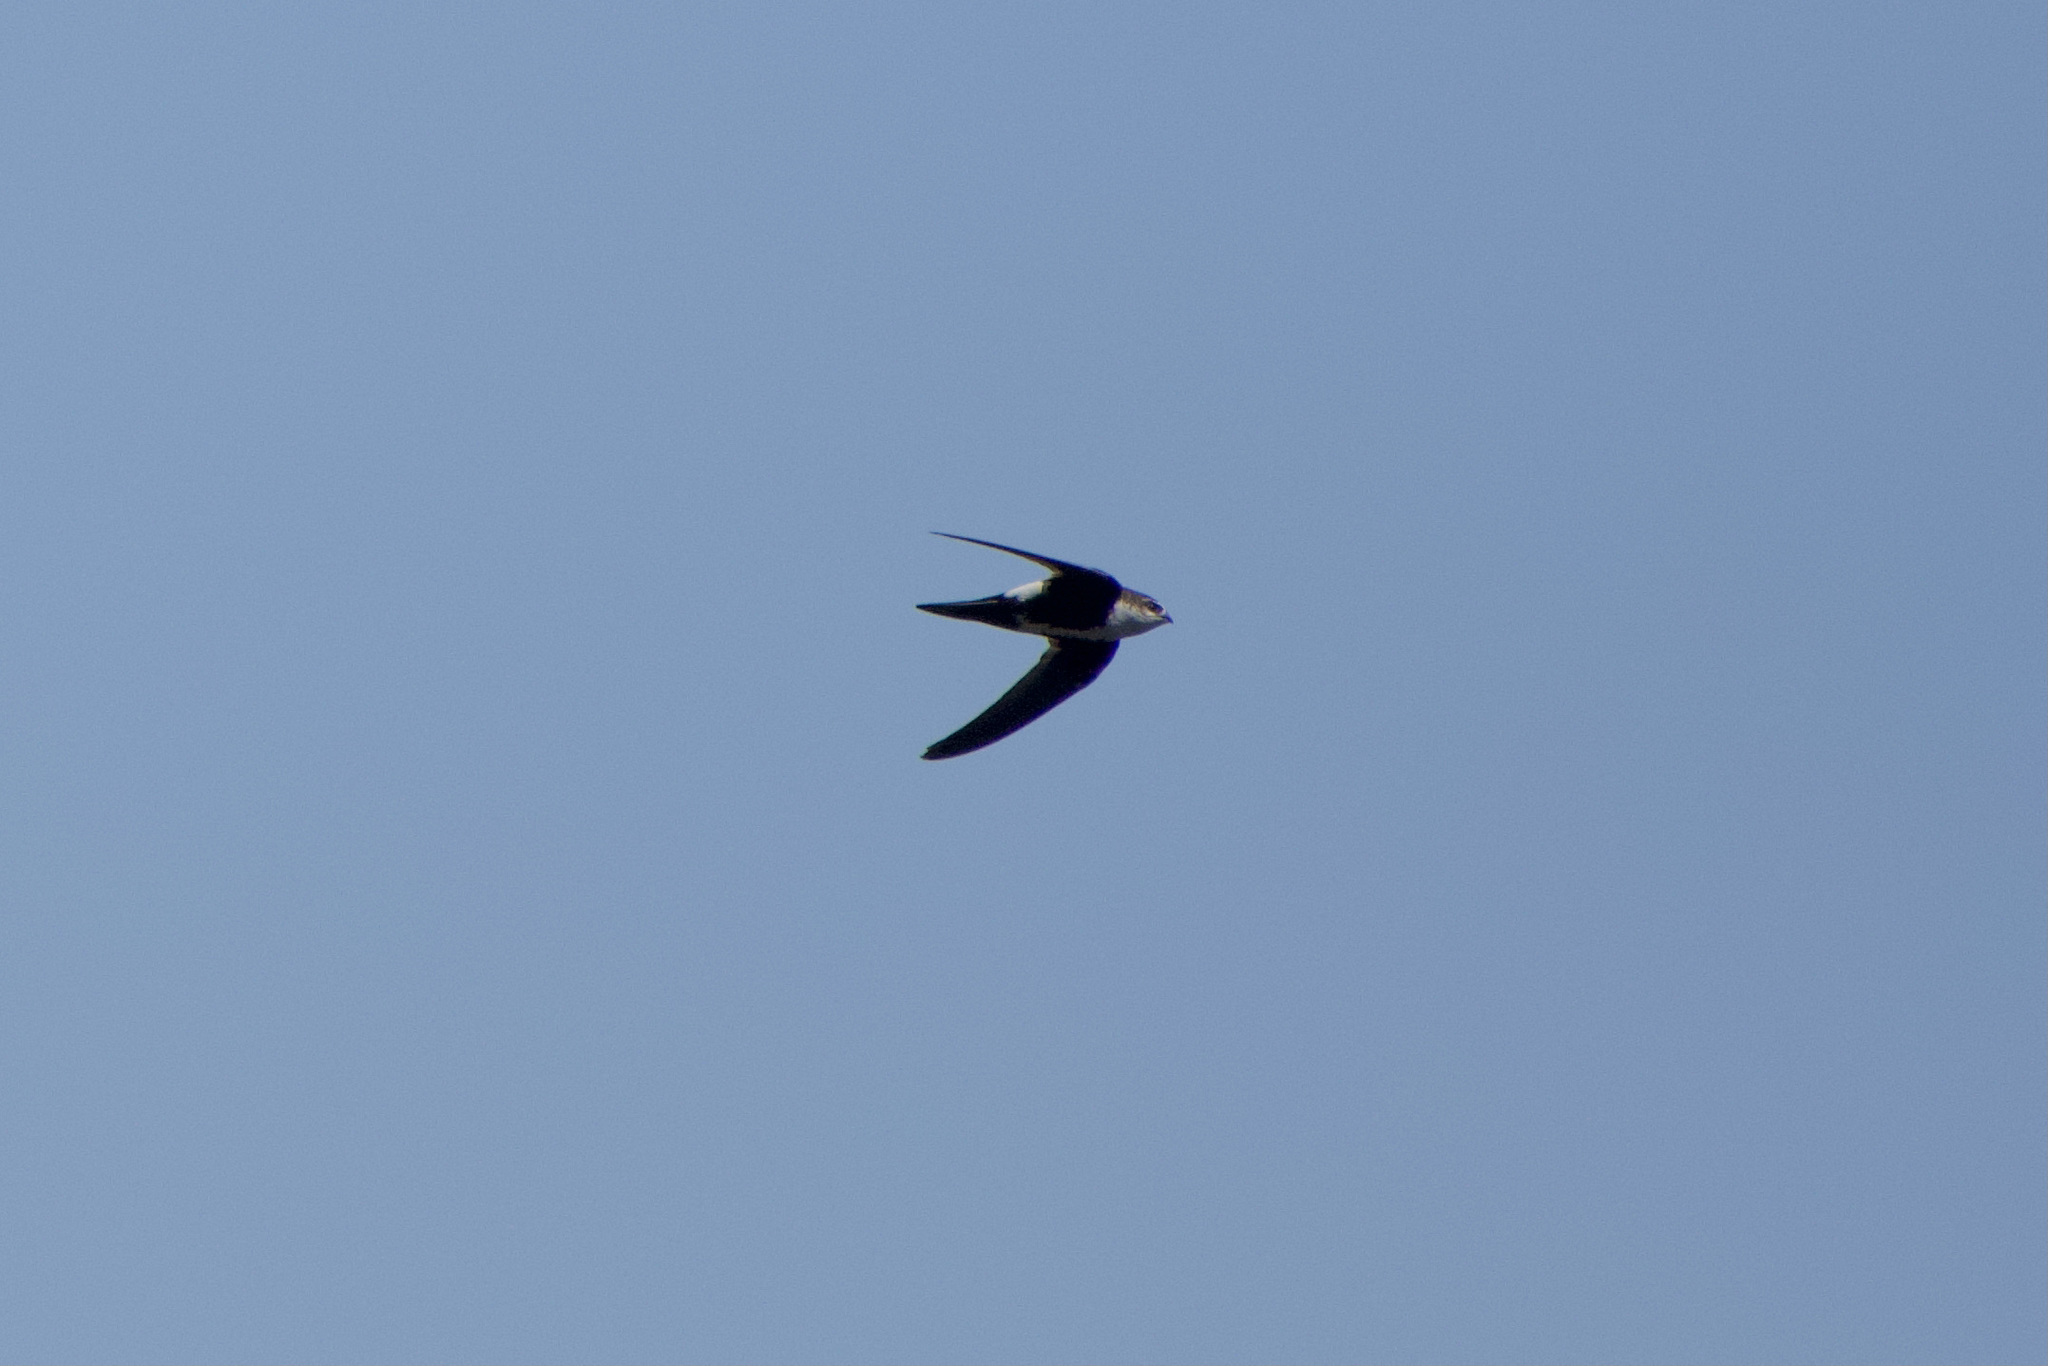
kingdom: Animalia
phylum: Chordata
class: Aves
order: Apodiformes
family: Apodidae
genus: Aeronautes
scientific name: Aeronautes saxatalis
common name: White-throated swift
